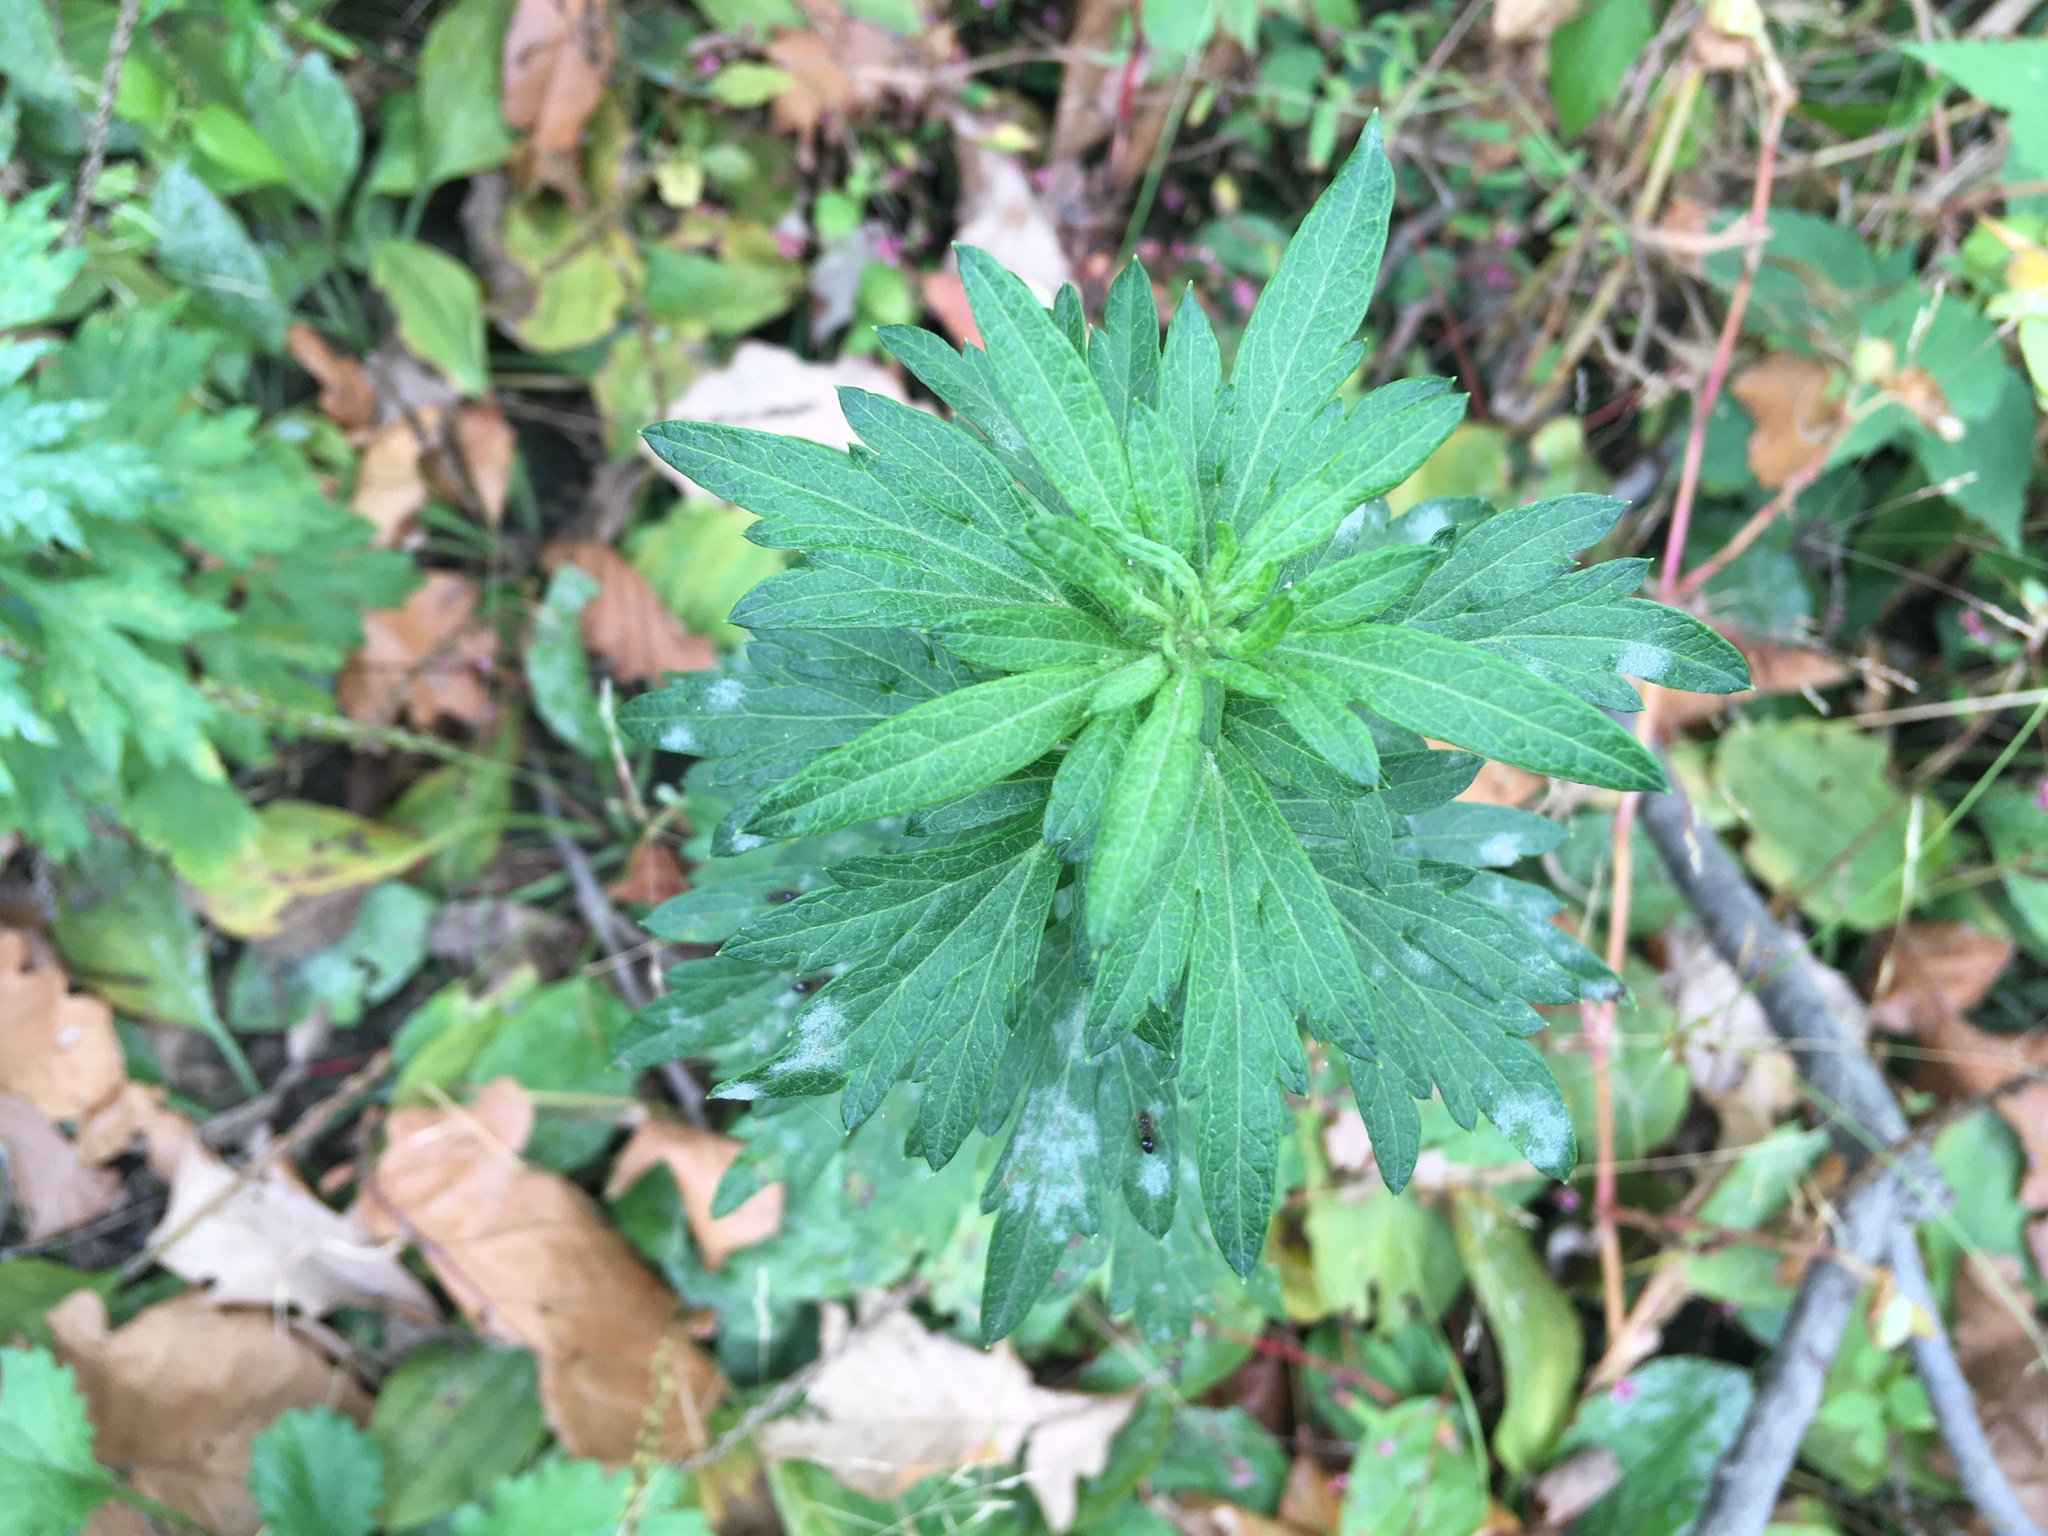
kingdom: Plantae
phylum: Tracheophyta
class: Magnoliopsida
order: Asterales
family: Asteraceae
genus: Artemisia
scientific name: Artemisia vulgaris
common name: Mugwort
